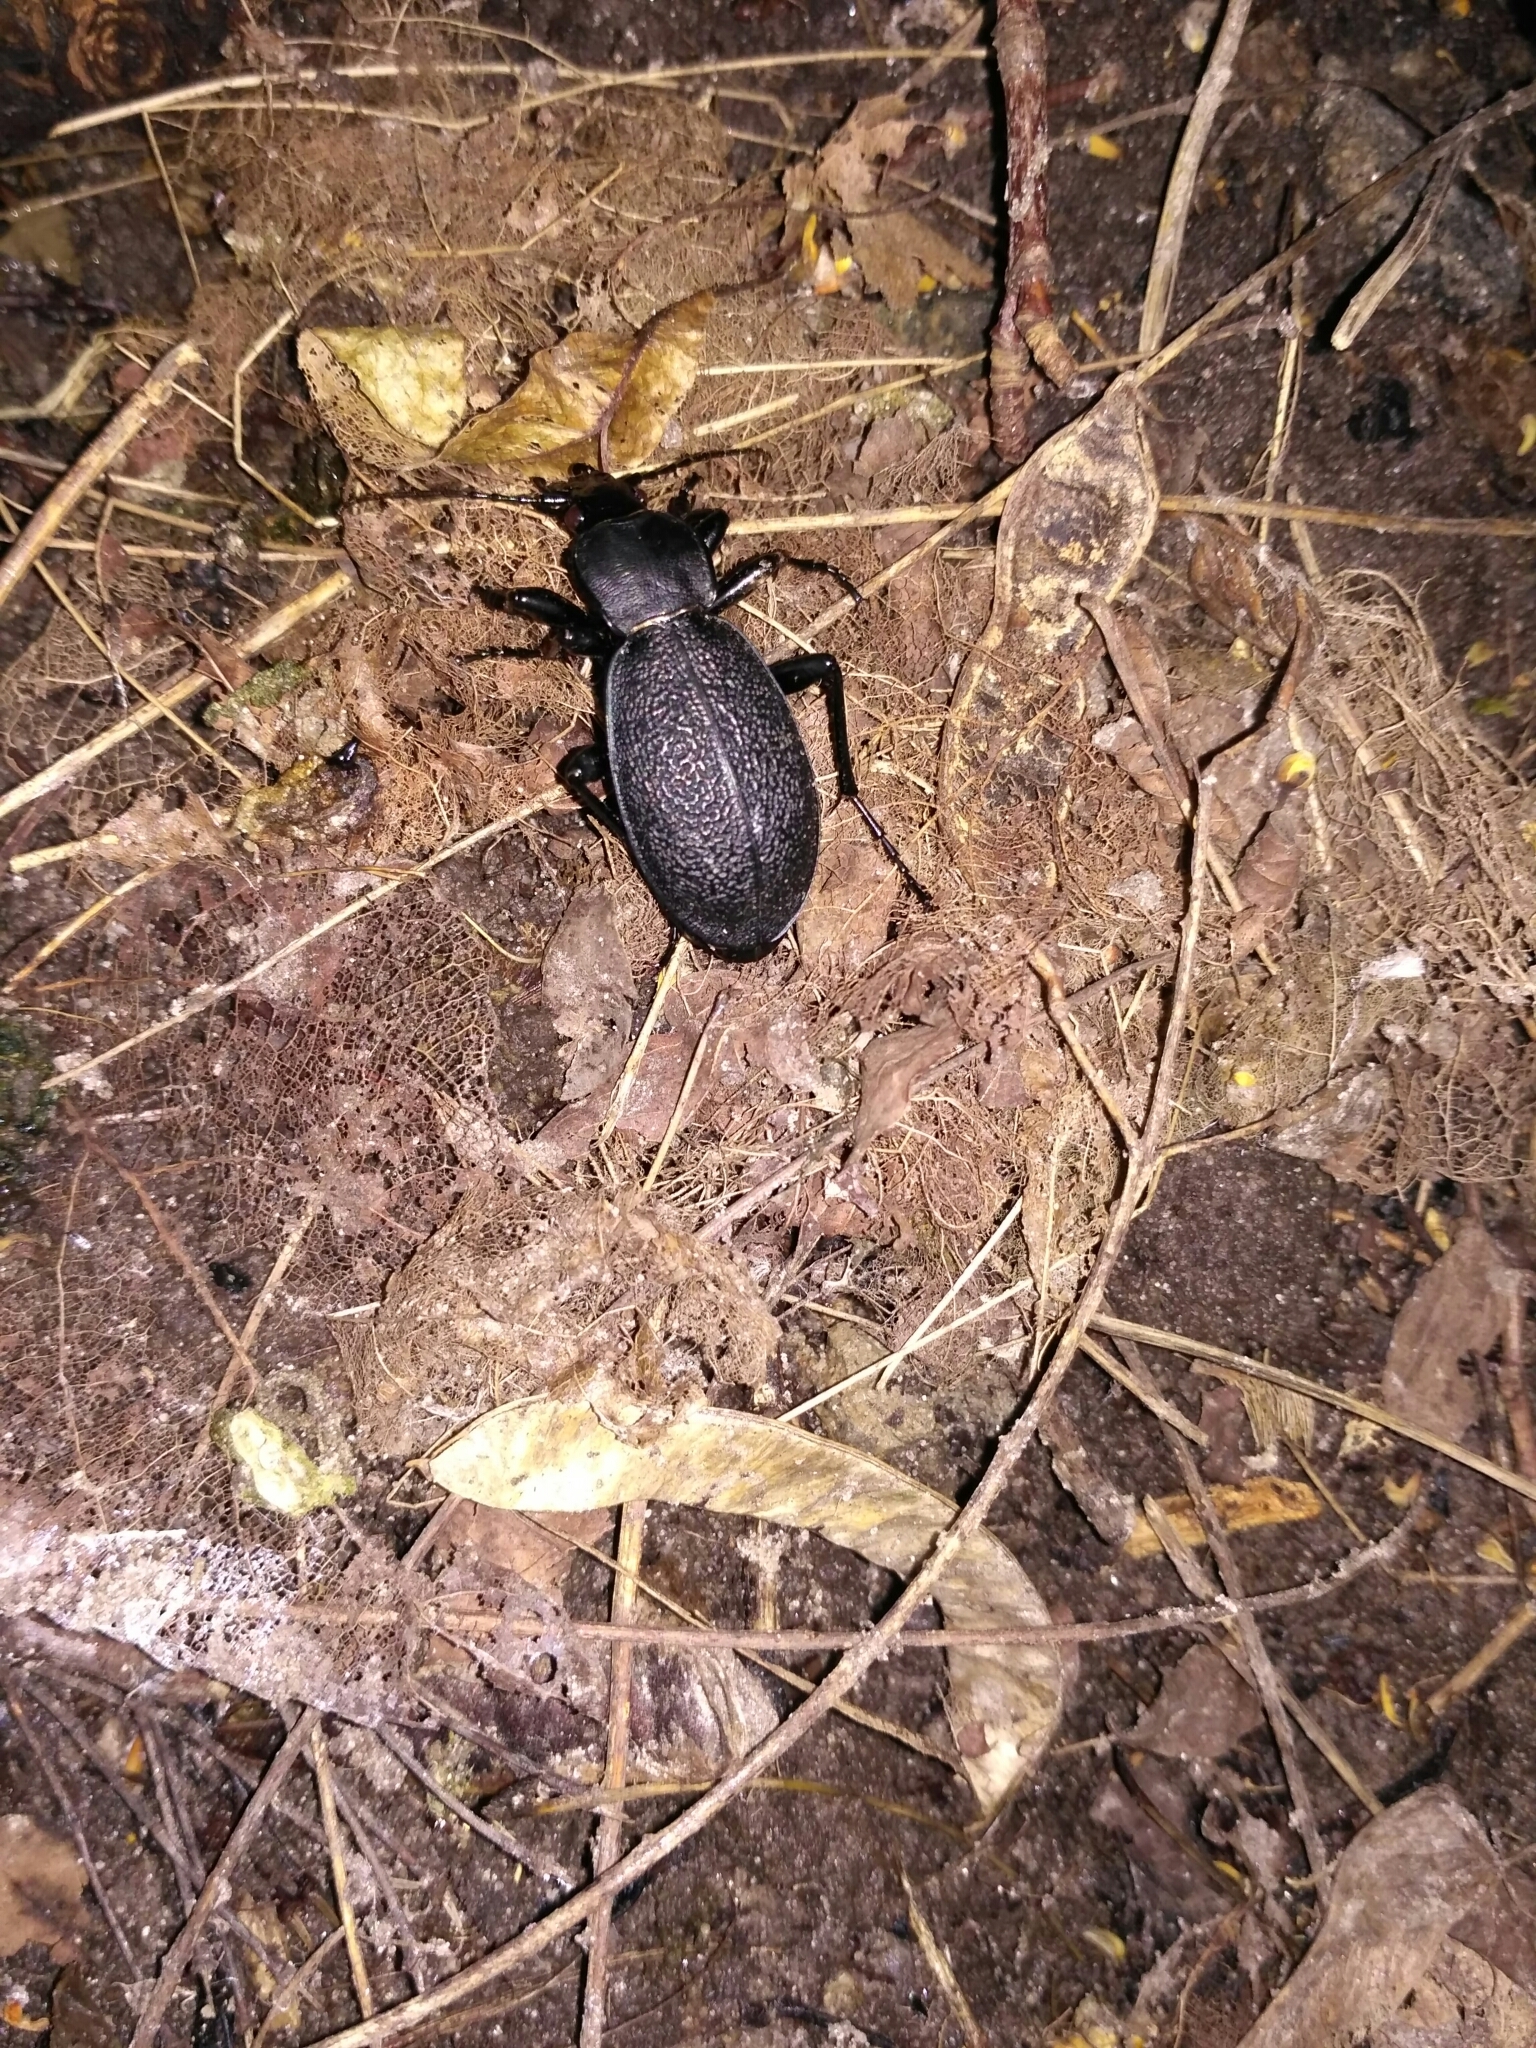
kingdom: Animalia
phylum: Arthropoda
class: Insecta
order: Coleoptera
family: Carabidae
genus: Carabus
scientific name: Carabus coriaceus
